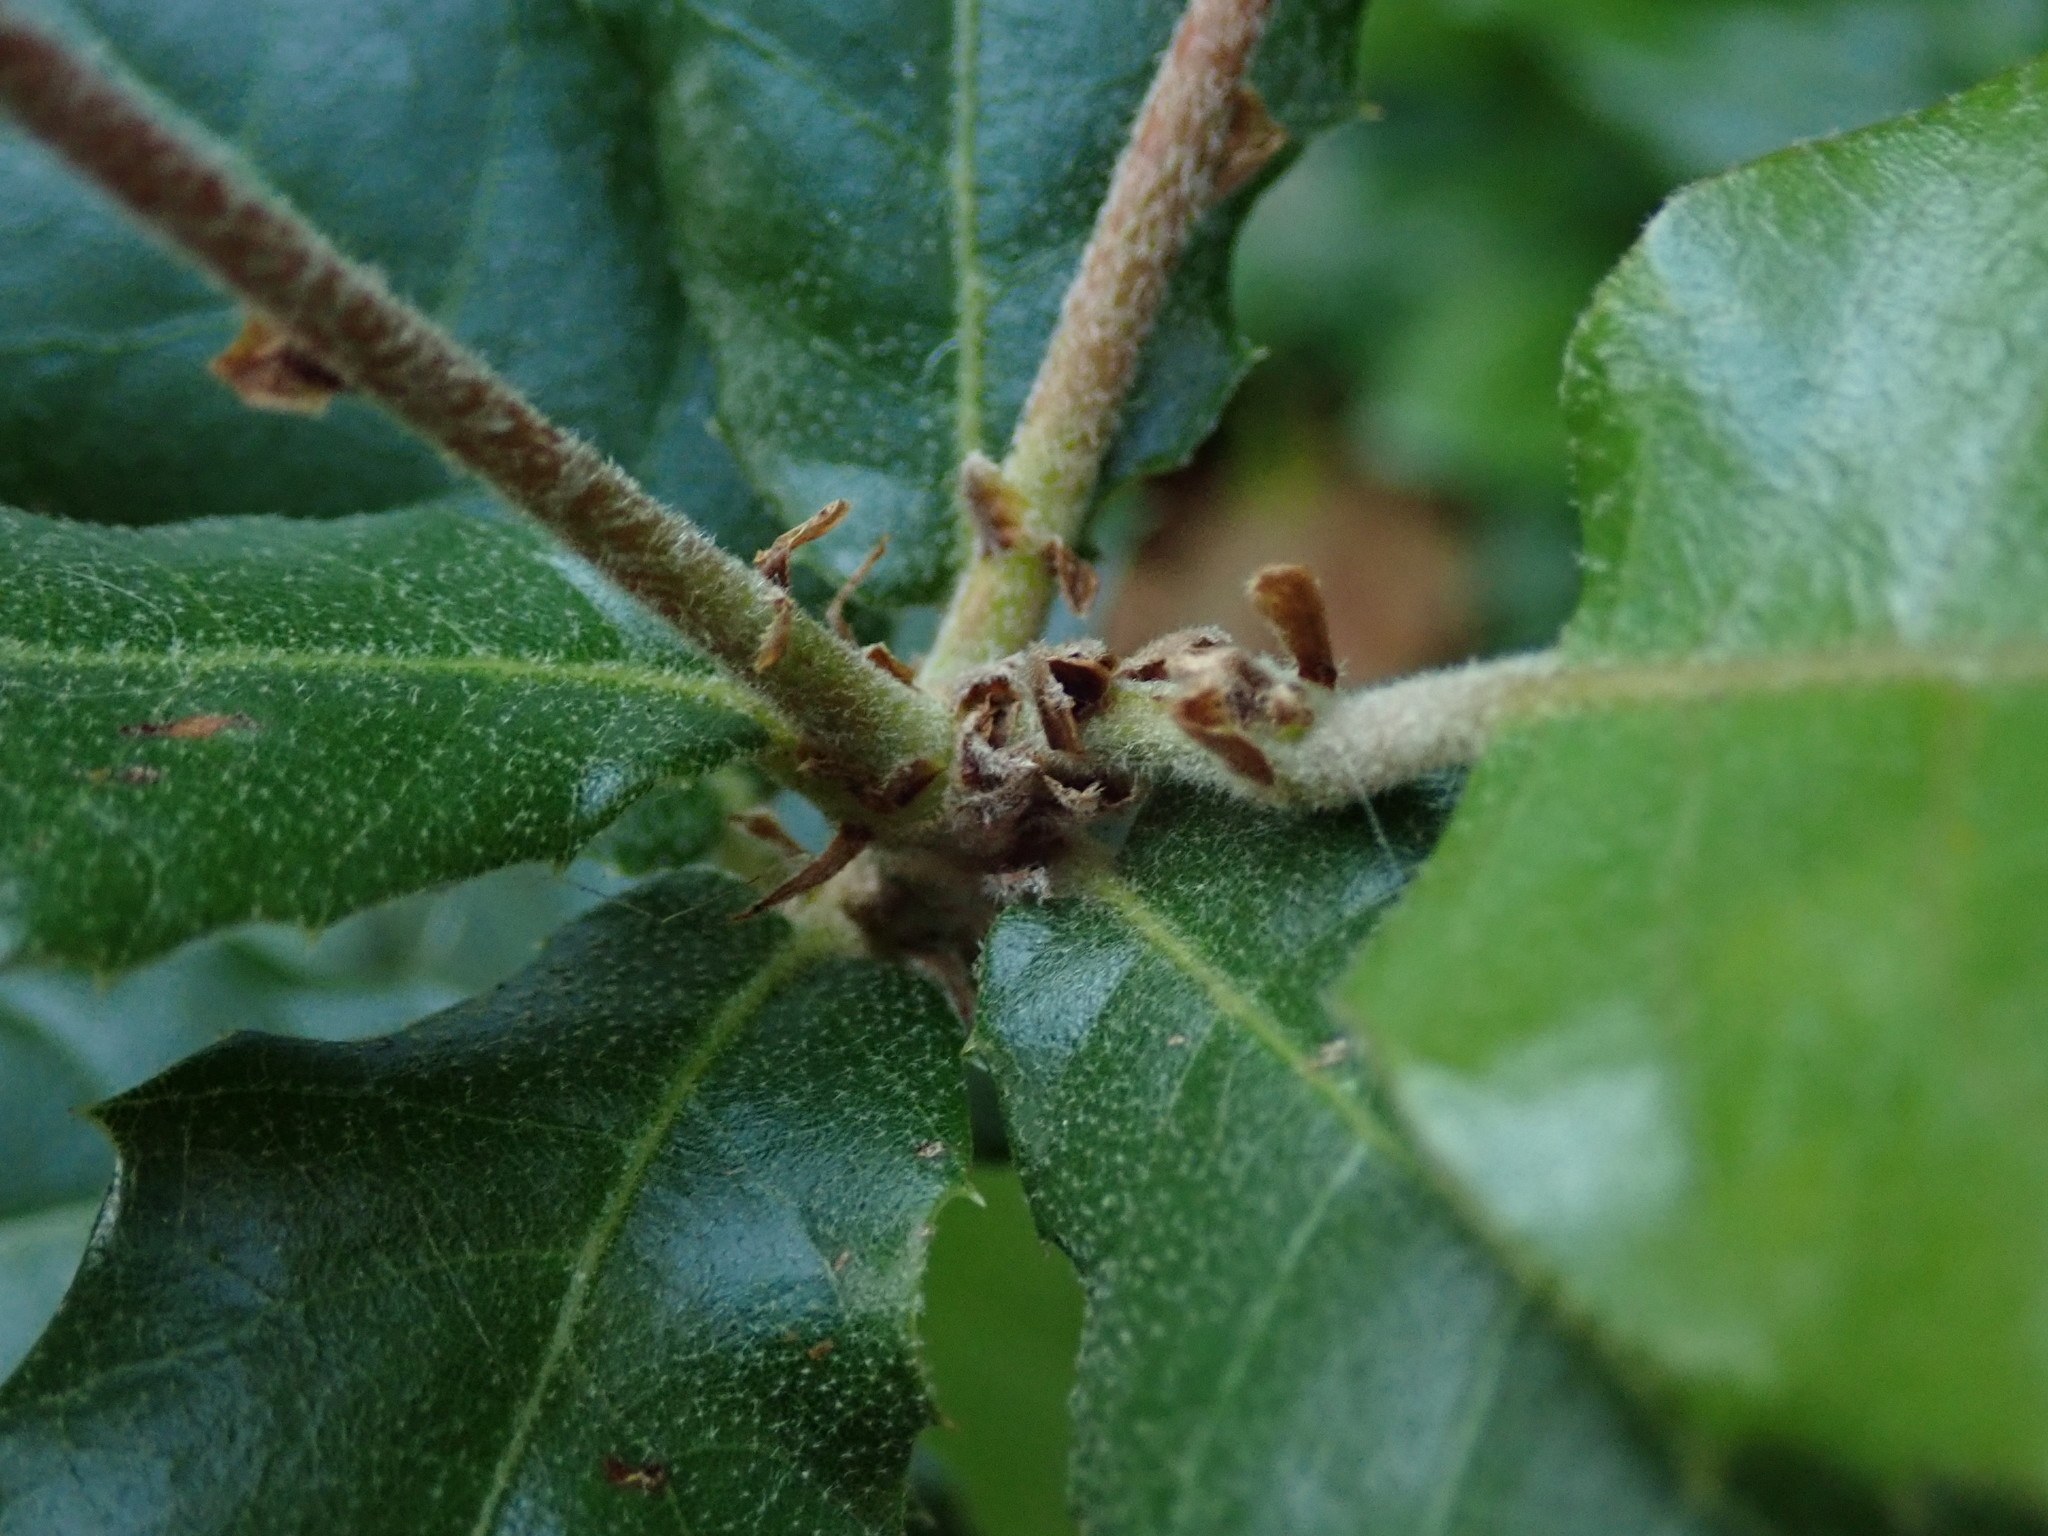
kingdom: Plantae
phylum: Tracheophyta
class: Magnoliopsida
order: Fagales
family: Fagaceae
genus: Quercus
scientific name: Quercus ilex
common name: Evergreen oak
